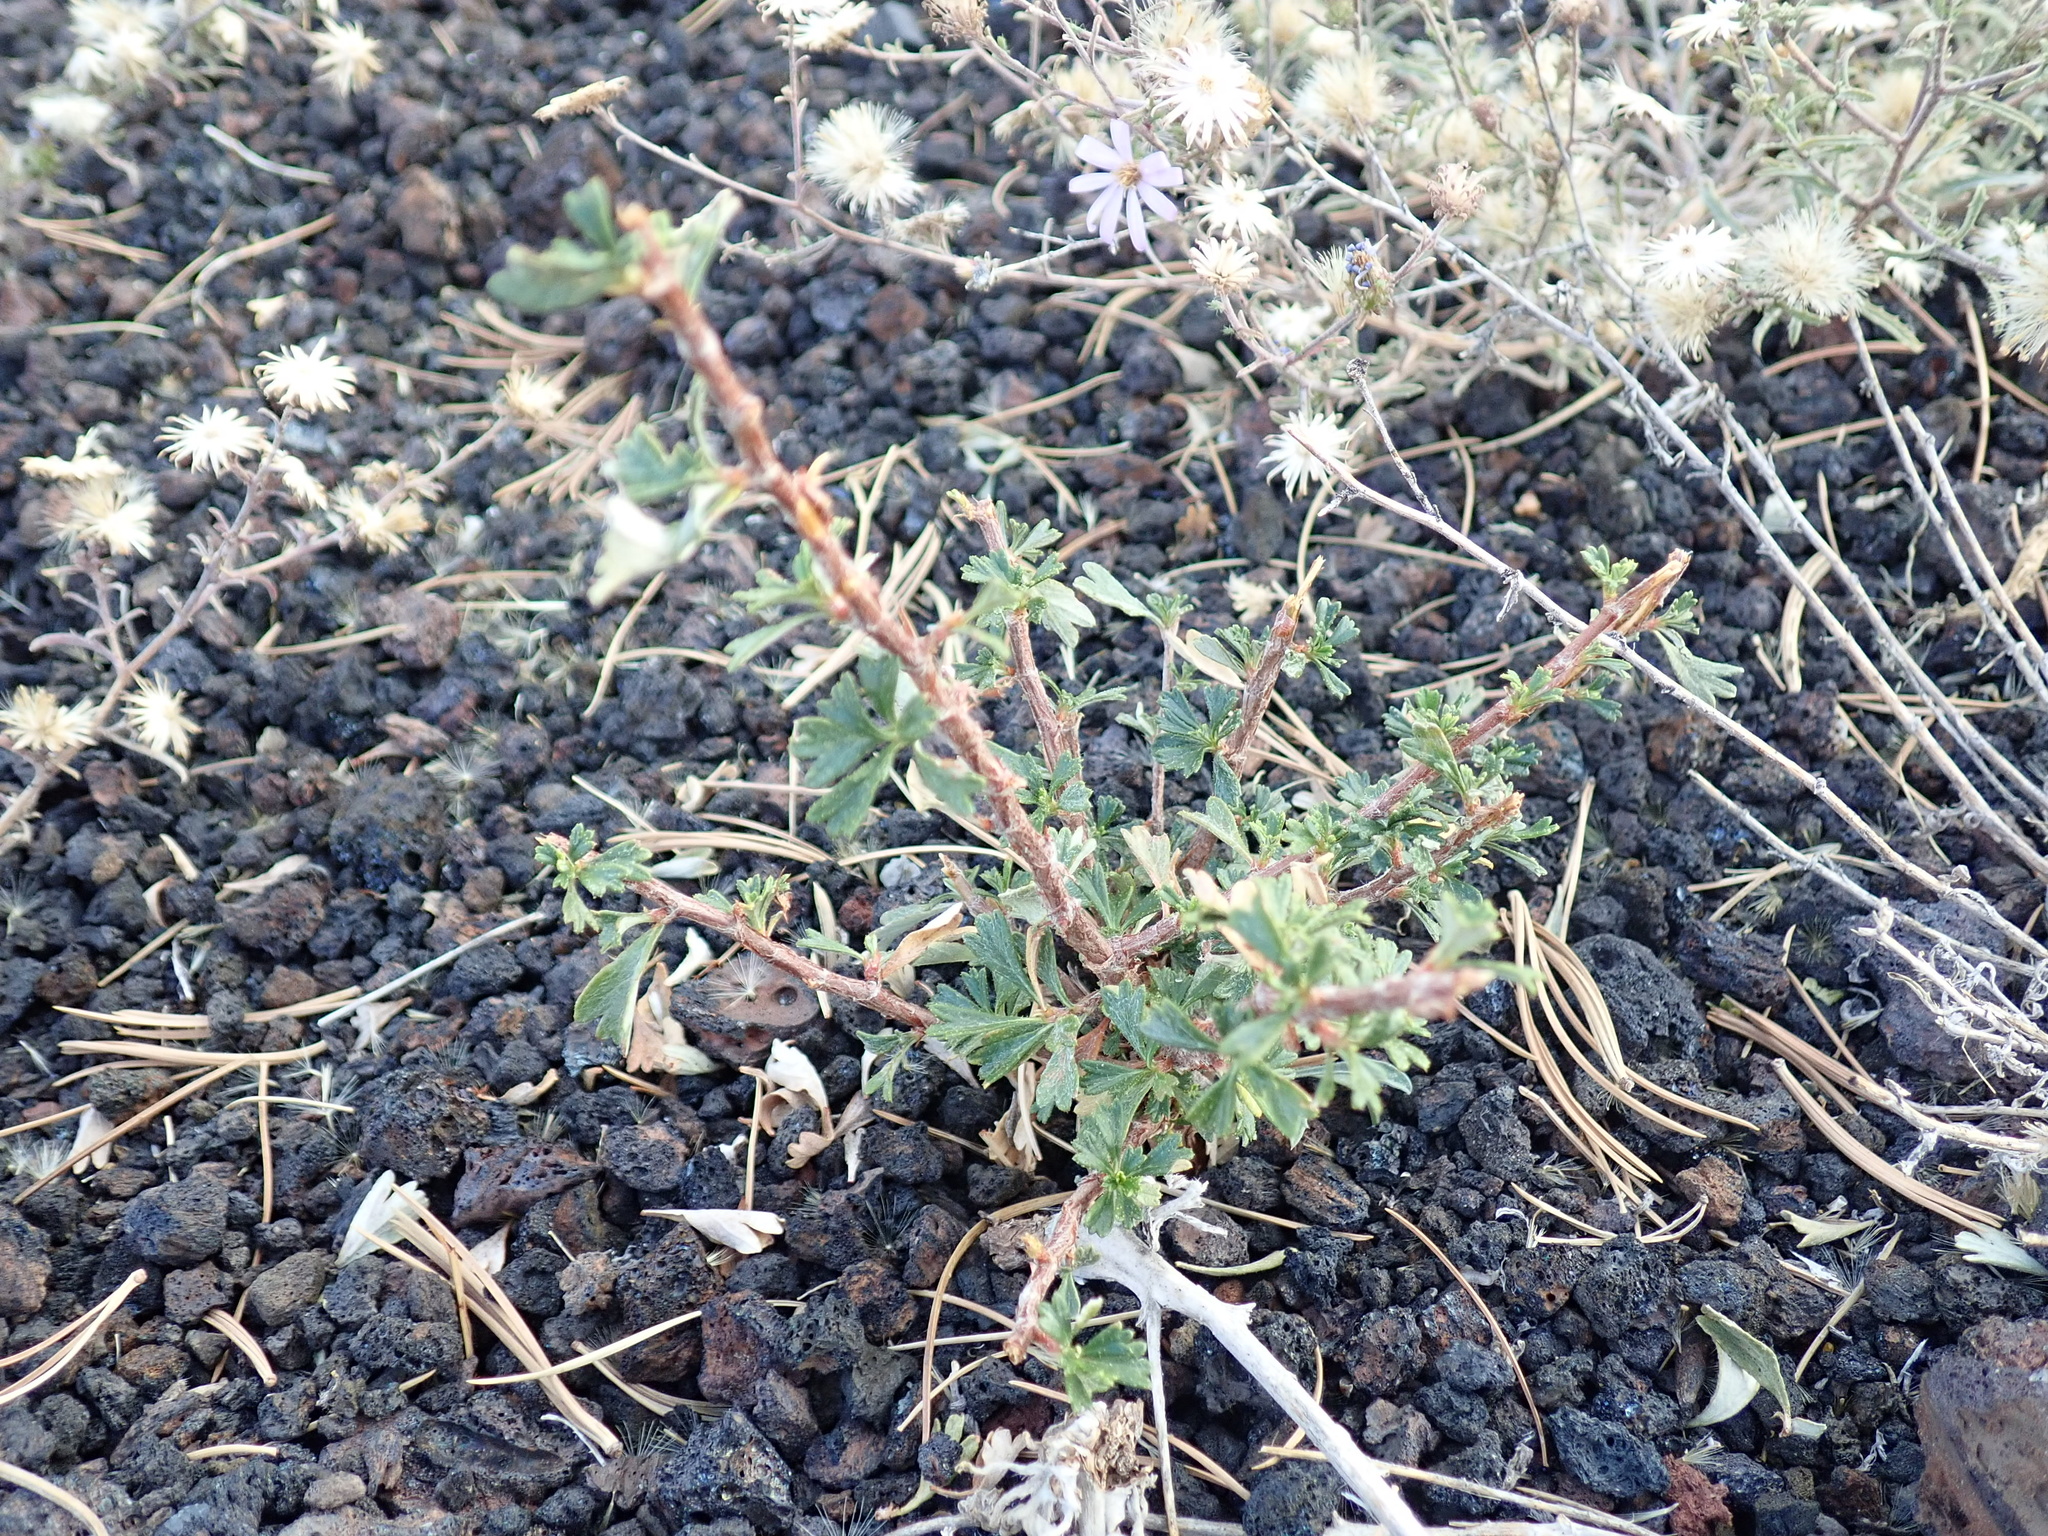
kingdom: Plantae
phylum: Tracheophyta
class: Magnoliopsida
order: Rosales
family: Rosaceae
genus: Purshia
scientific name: Purshia tridentata
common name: Antelope bitterbrush
